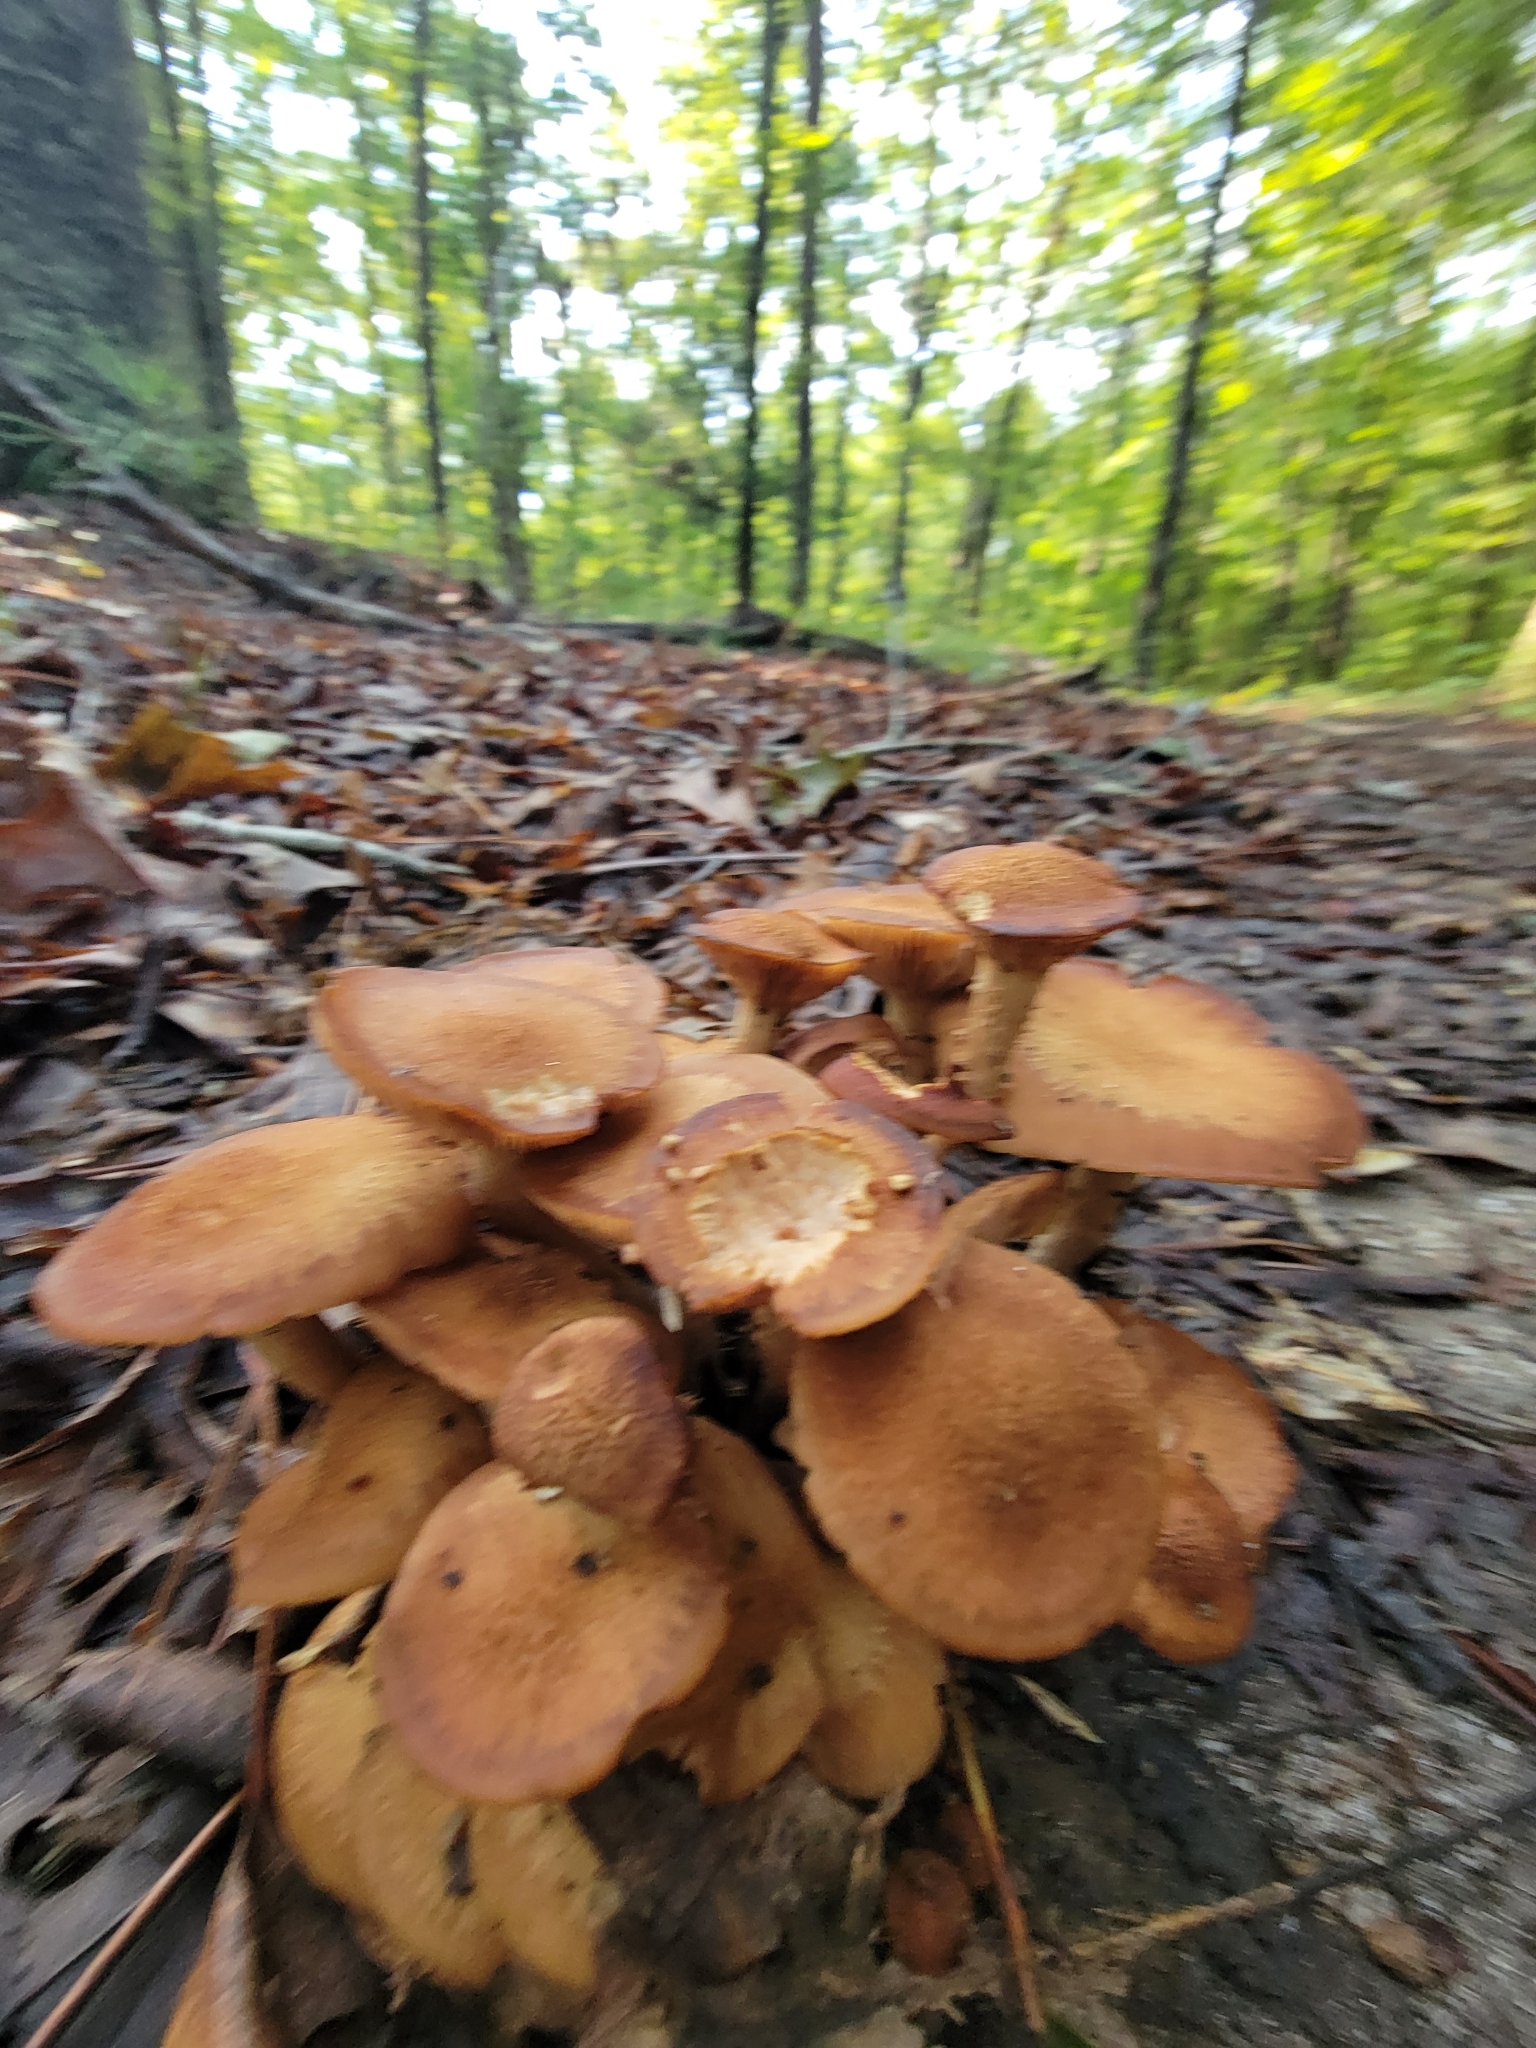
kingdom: Fungi
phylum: Basidiomycota
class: Agaricomycetes
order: Agaricales
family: Physalacriaceae
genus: Desarmillaria
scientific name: Desarmillaria caespitosa
